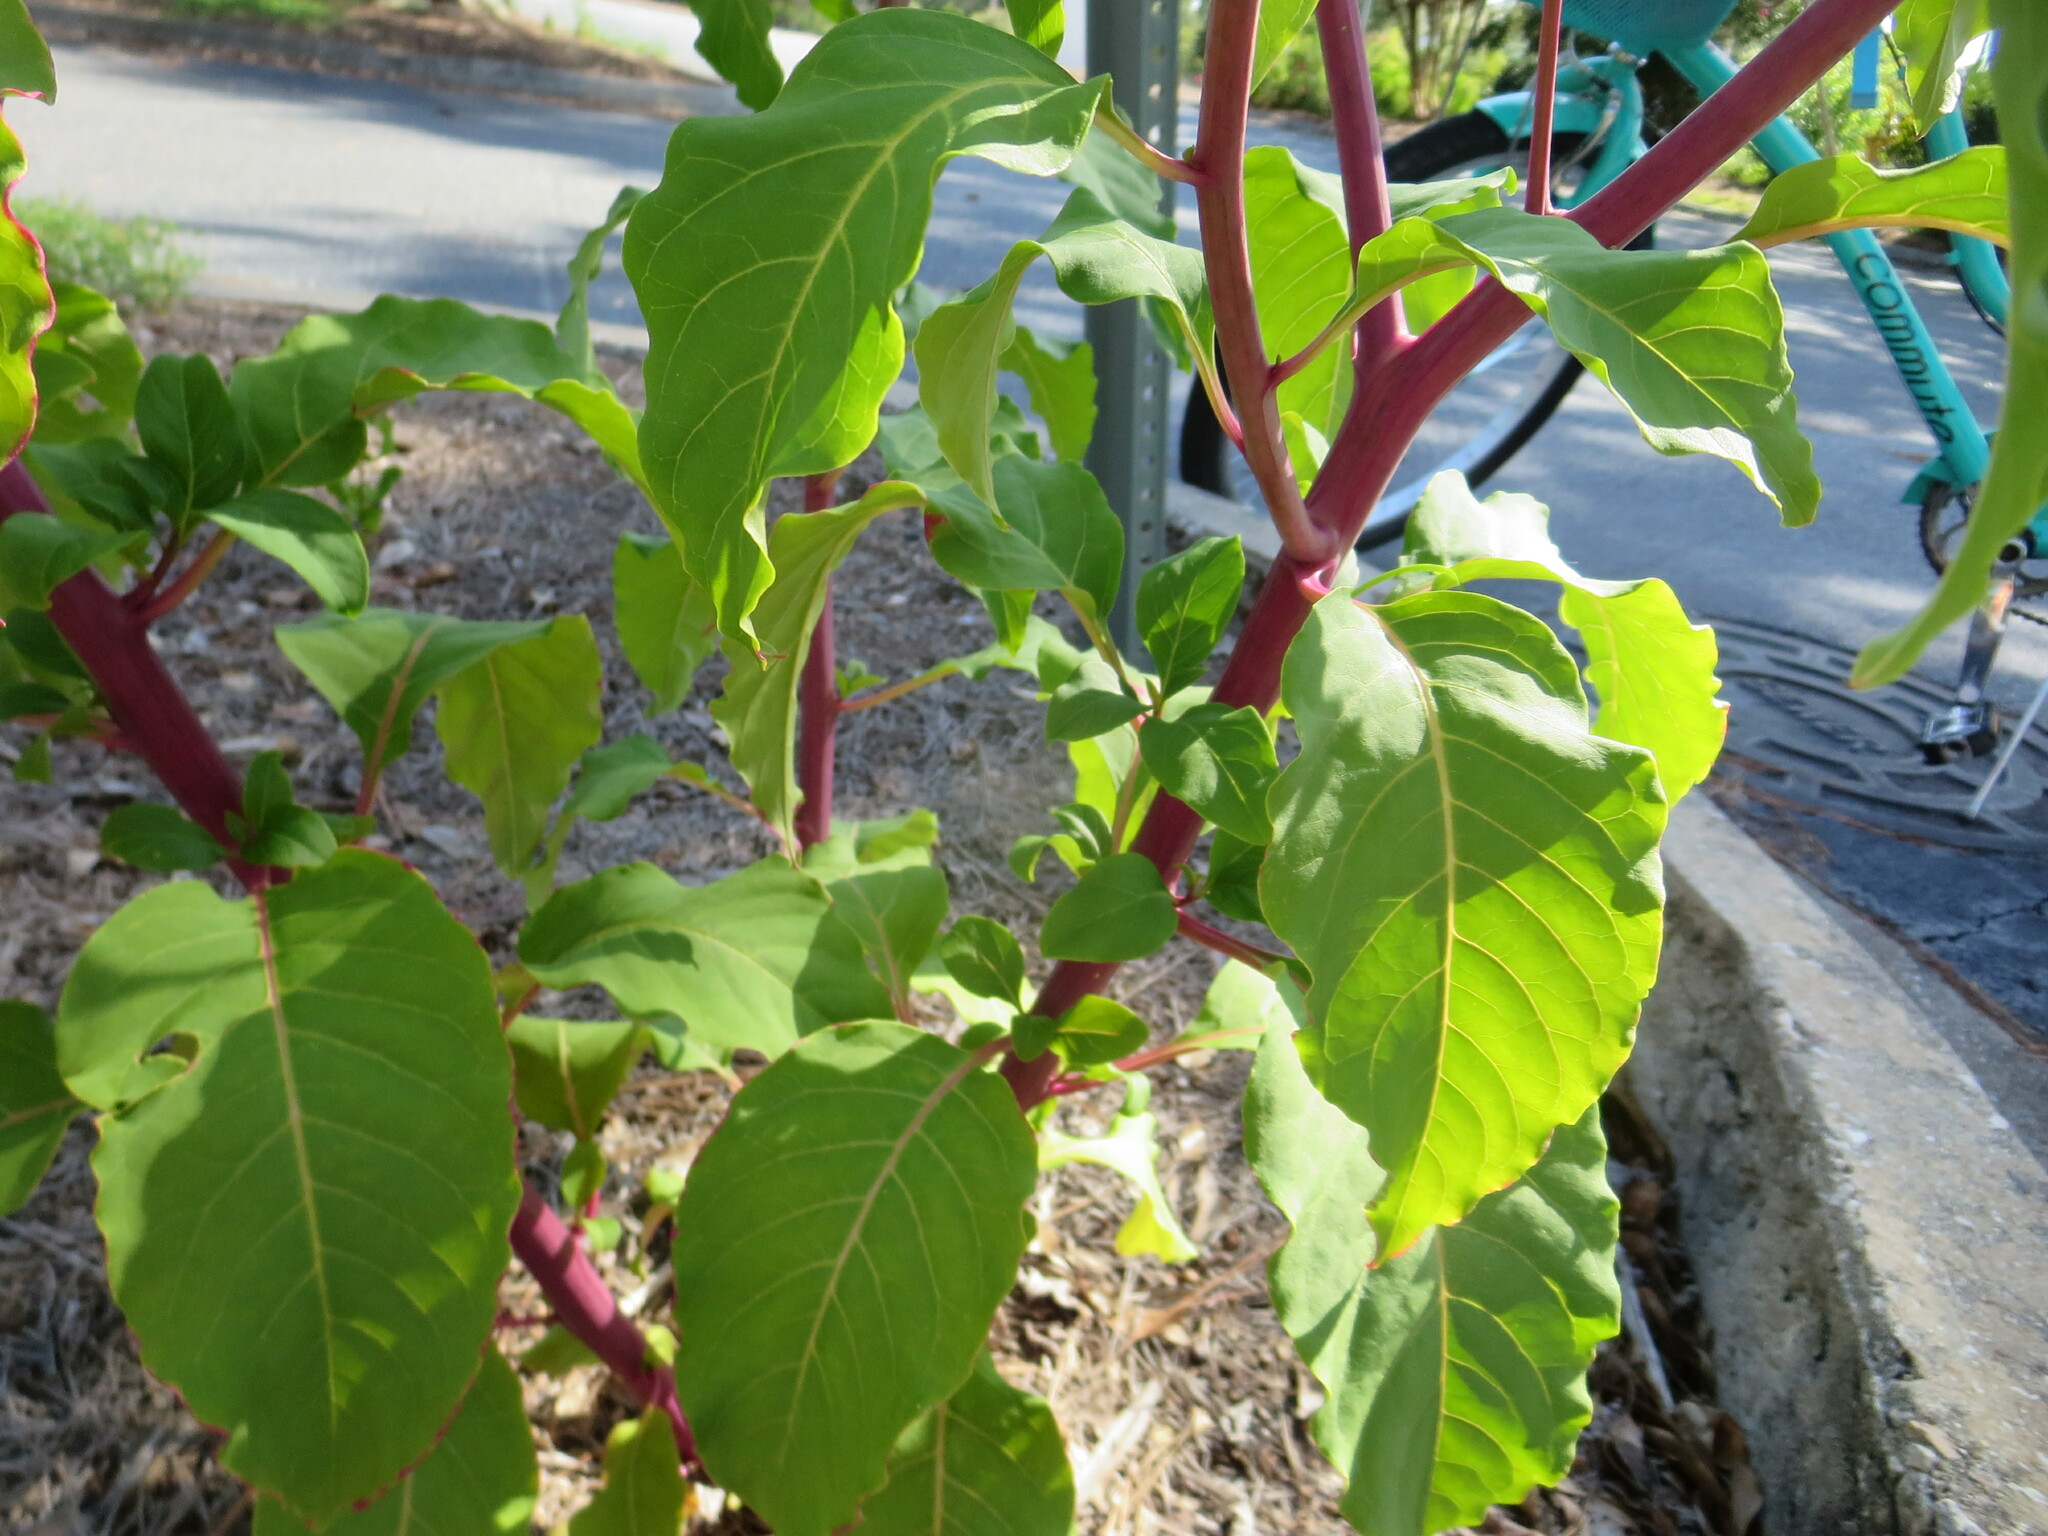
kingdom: Plantae
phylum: Tracheophyta
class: Magnoliopsida
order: Caryophyllales
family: Phytolaccaceae
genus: Phytolacca
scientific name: Phytolacca americana
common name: American pokeweed
